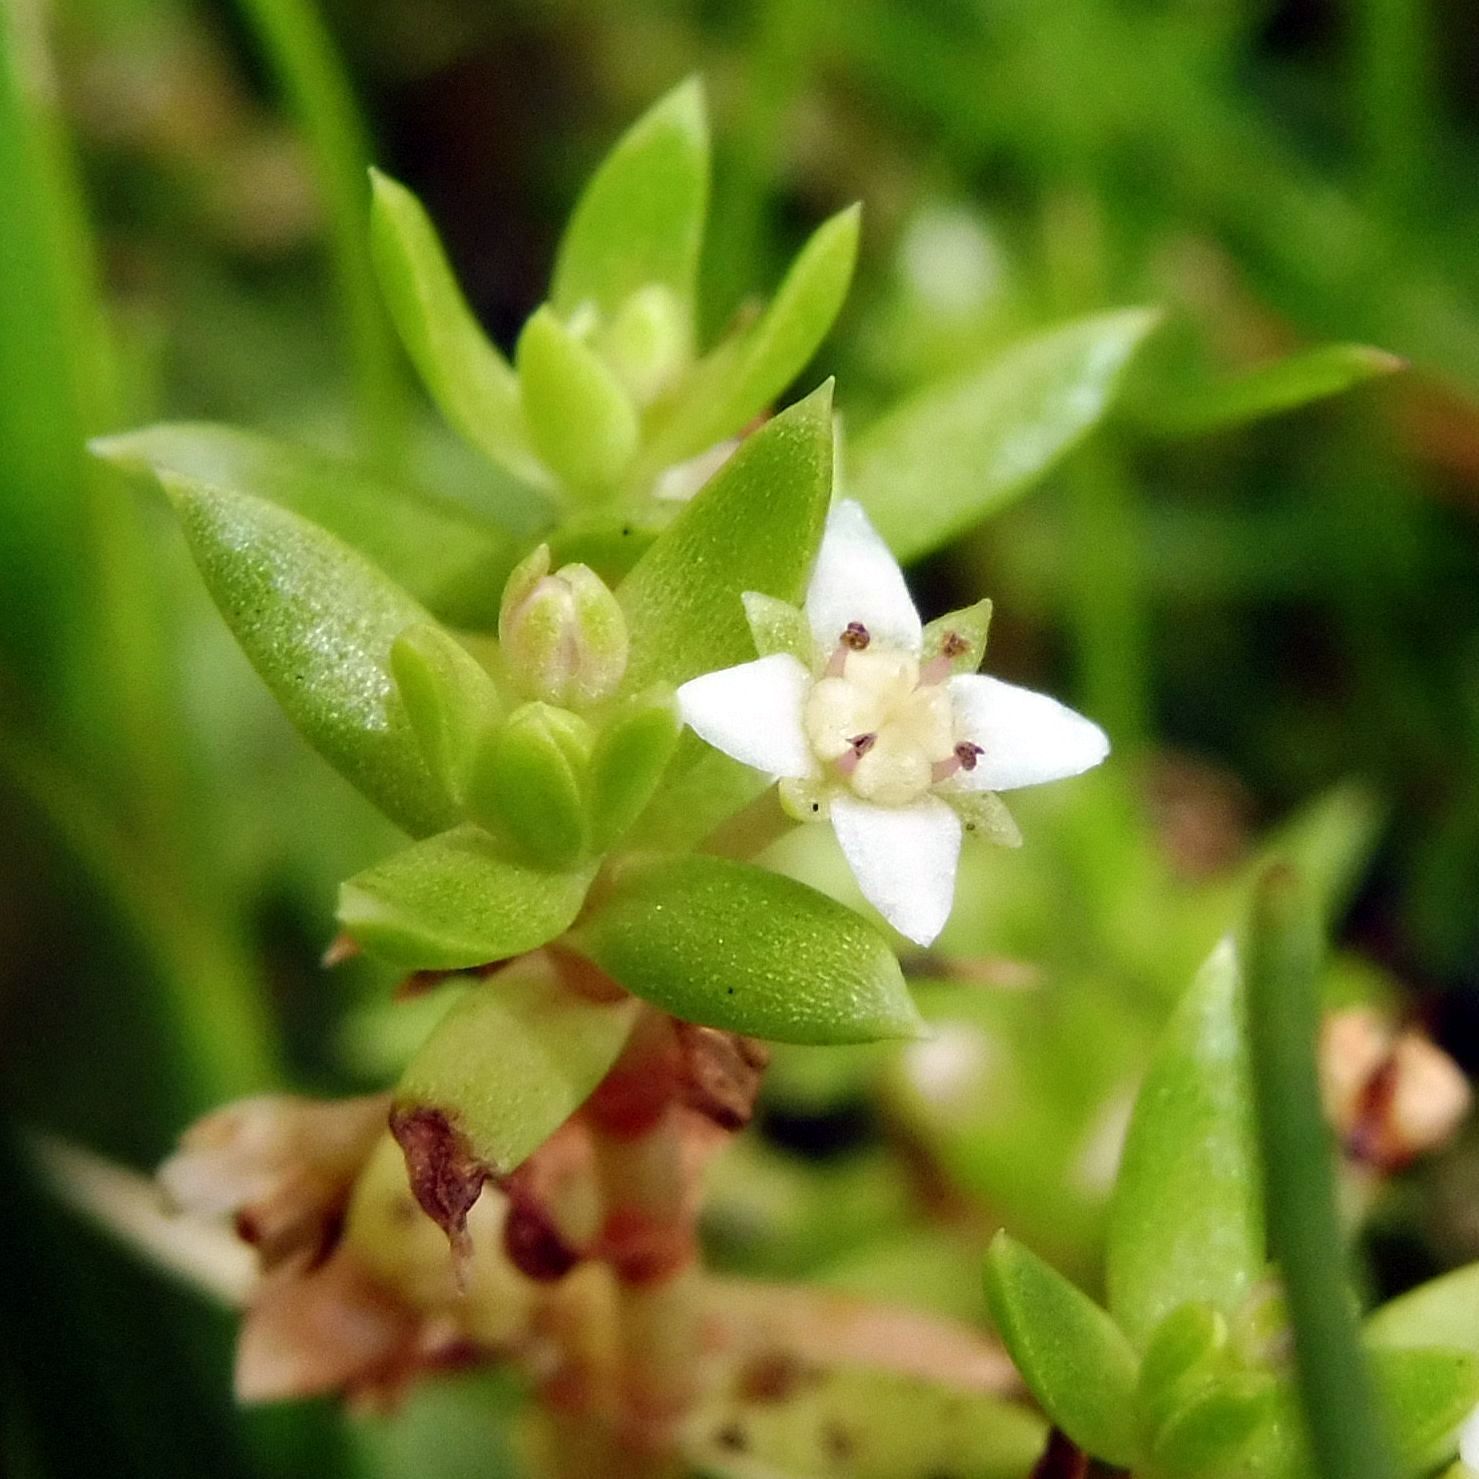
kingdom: Plantae
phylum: Tracheophyta
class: Magnoliopsida
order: Saxifragales
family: Crassulaceae
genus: Crassula
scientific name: Crassula helmsii
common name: New zealand pigmyweed
